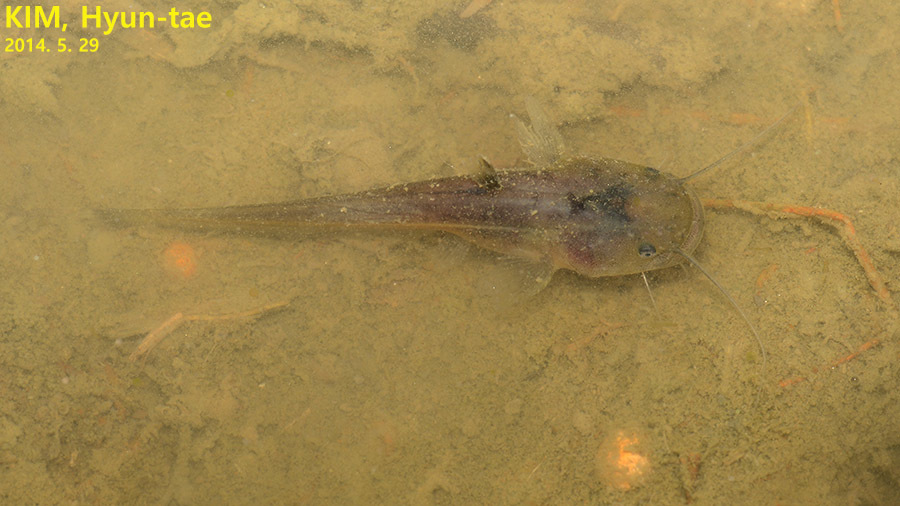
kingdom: Animalia
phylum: Chordata
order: Siluriformes
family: Siluridae
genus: Silurus
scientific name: Silurus asotus
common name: Amur catfish
